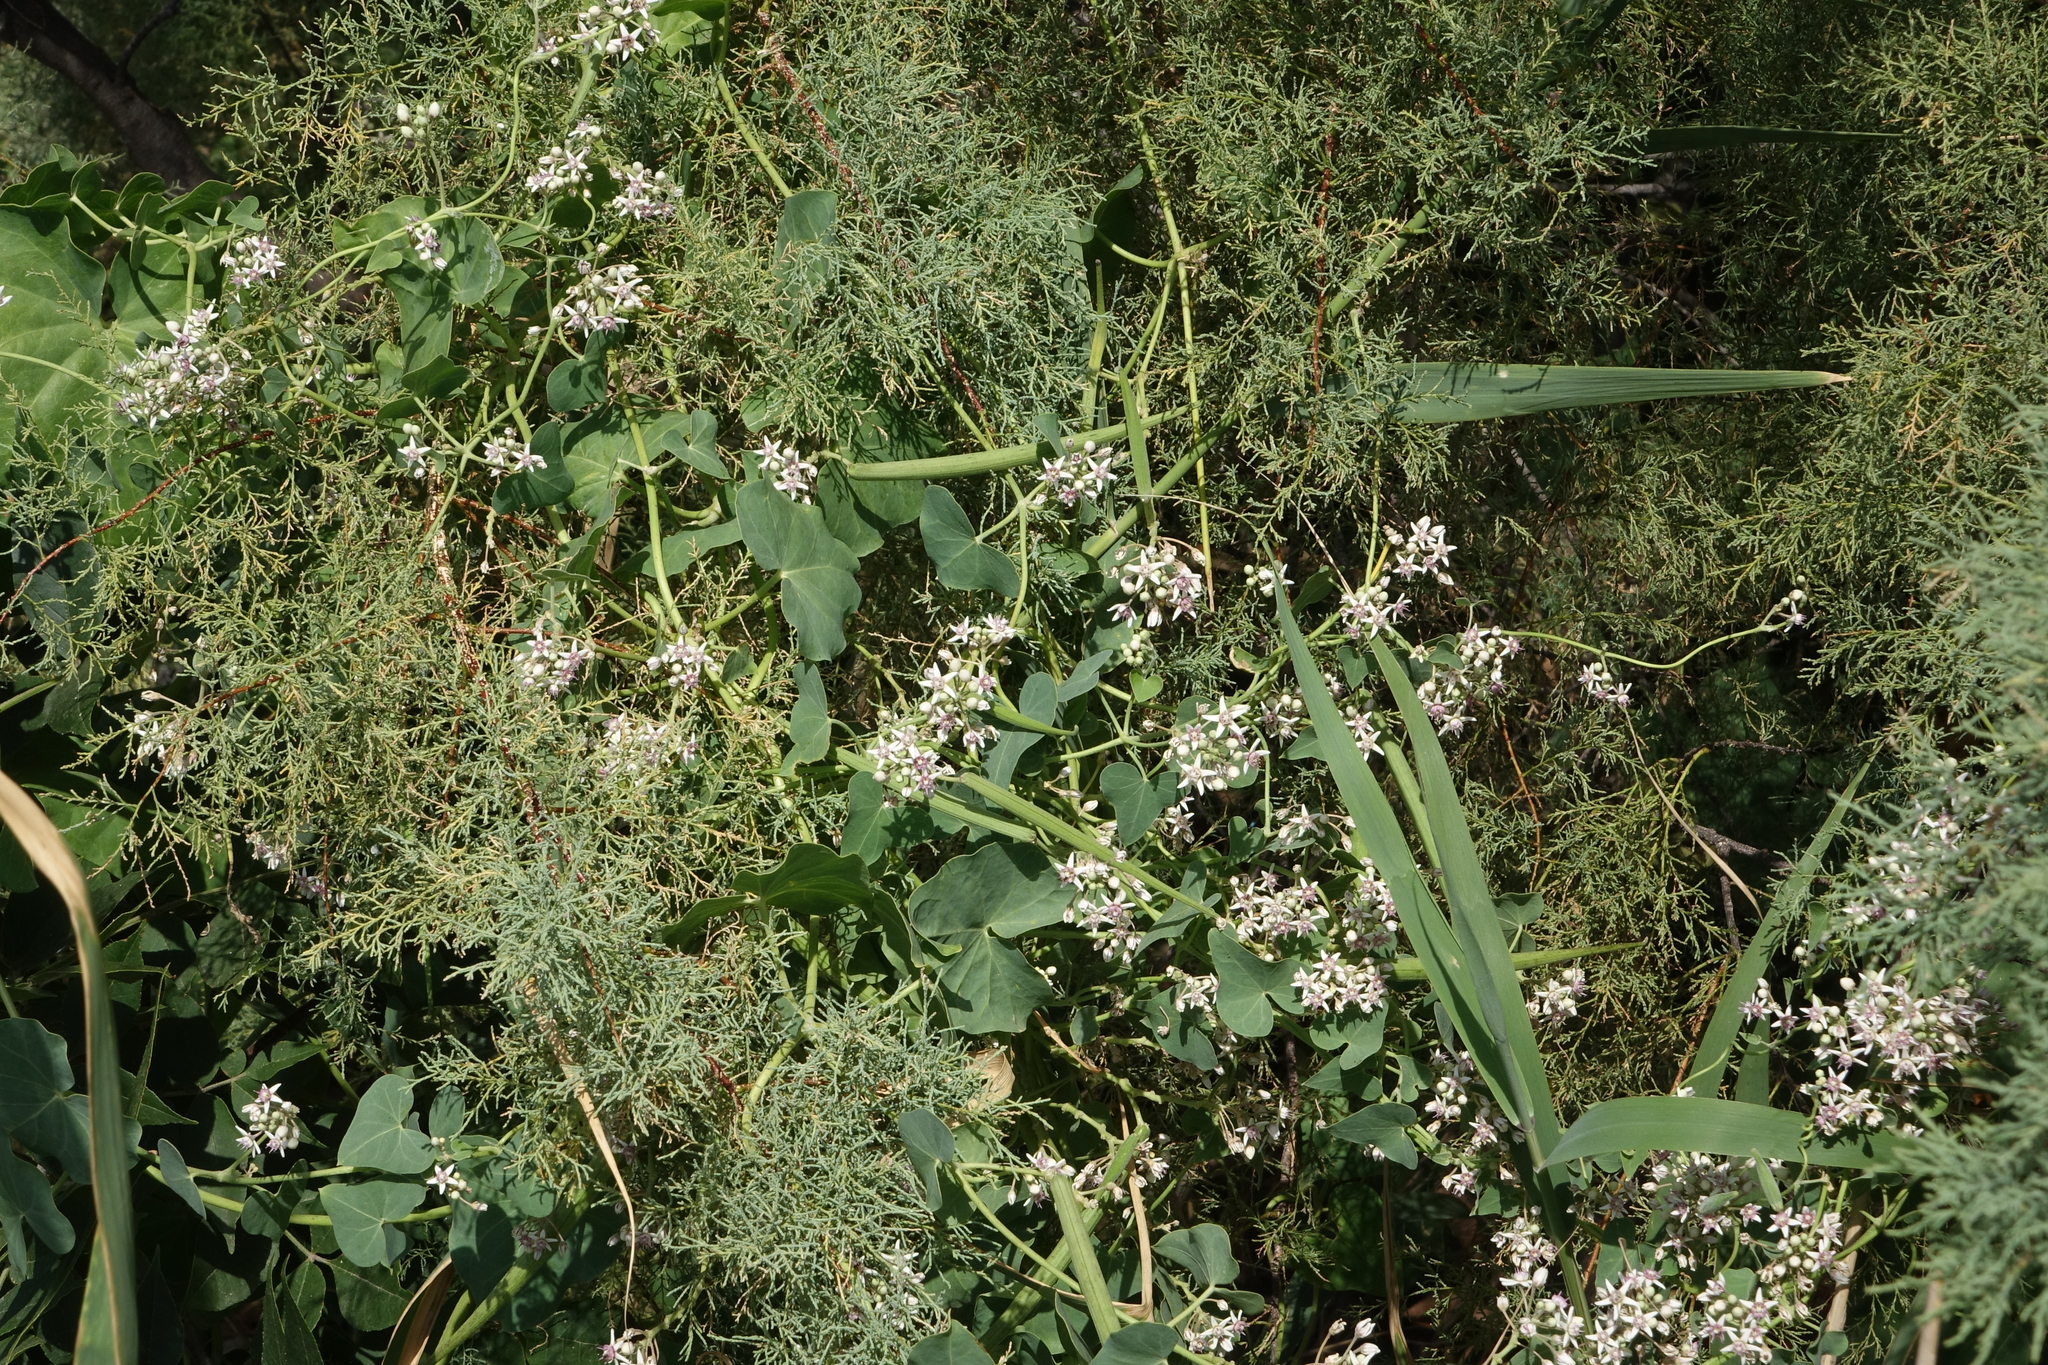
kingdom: Plantae
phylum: Tracheophyta
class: Magnoliopsida
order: Gentianales
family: Apocynaceae
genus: Cynanchum
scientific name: Cynanchum acutum
